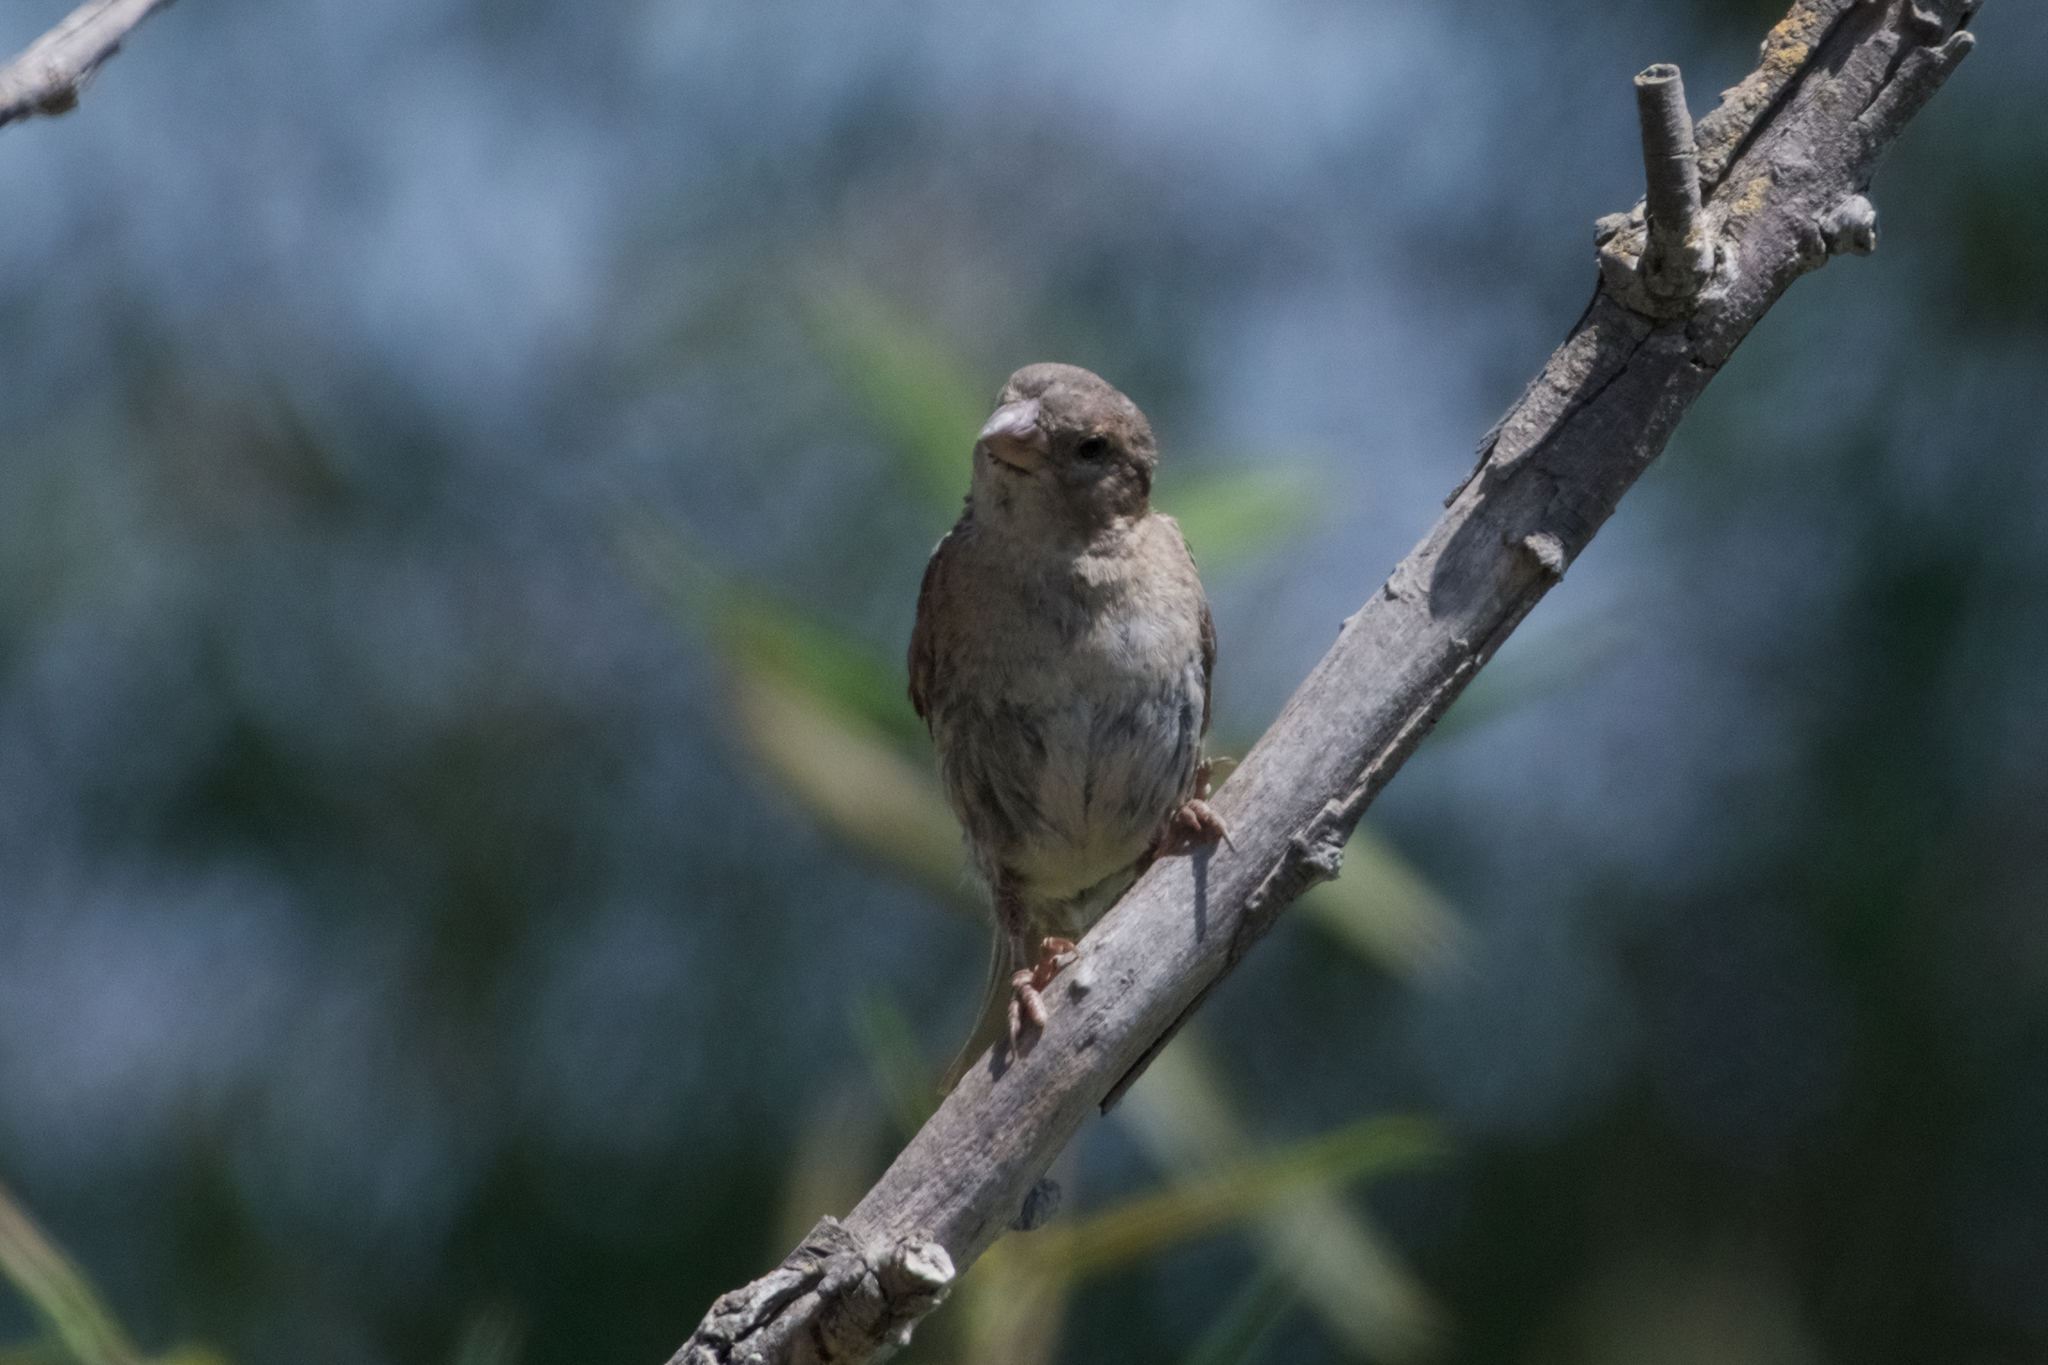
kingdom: Animalia
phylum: Chordata
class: Aves
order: Passeriformes
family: Passeridae
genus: Passer
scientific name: Passer domesticus
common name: House sparrow
